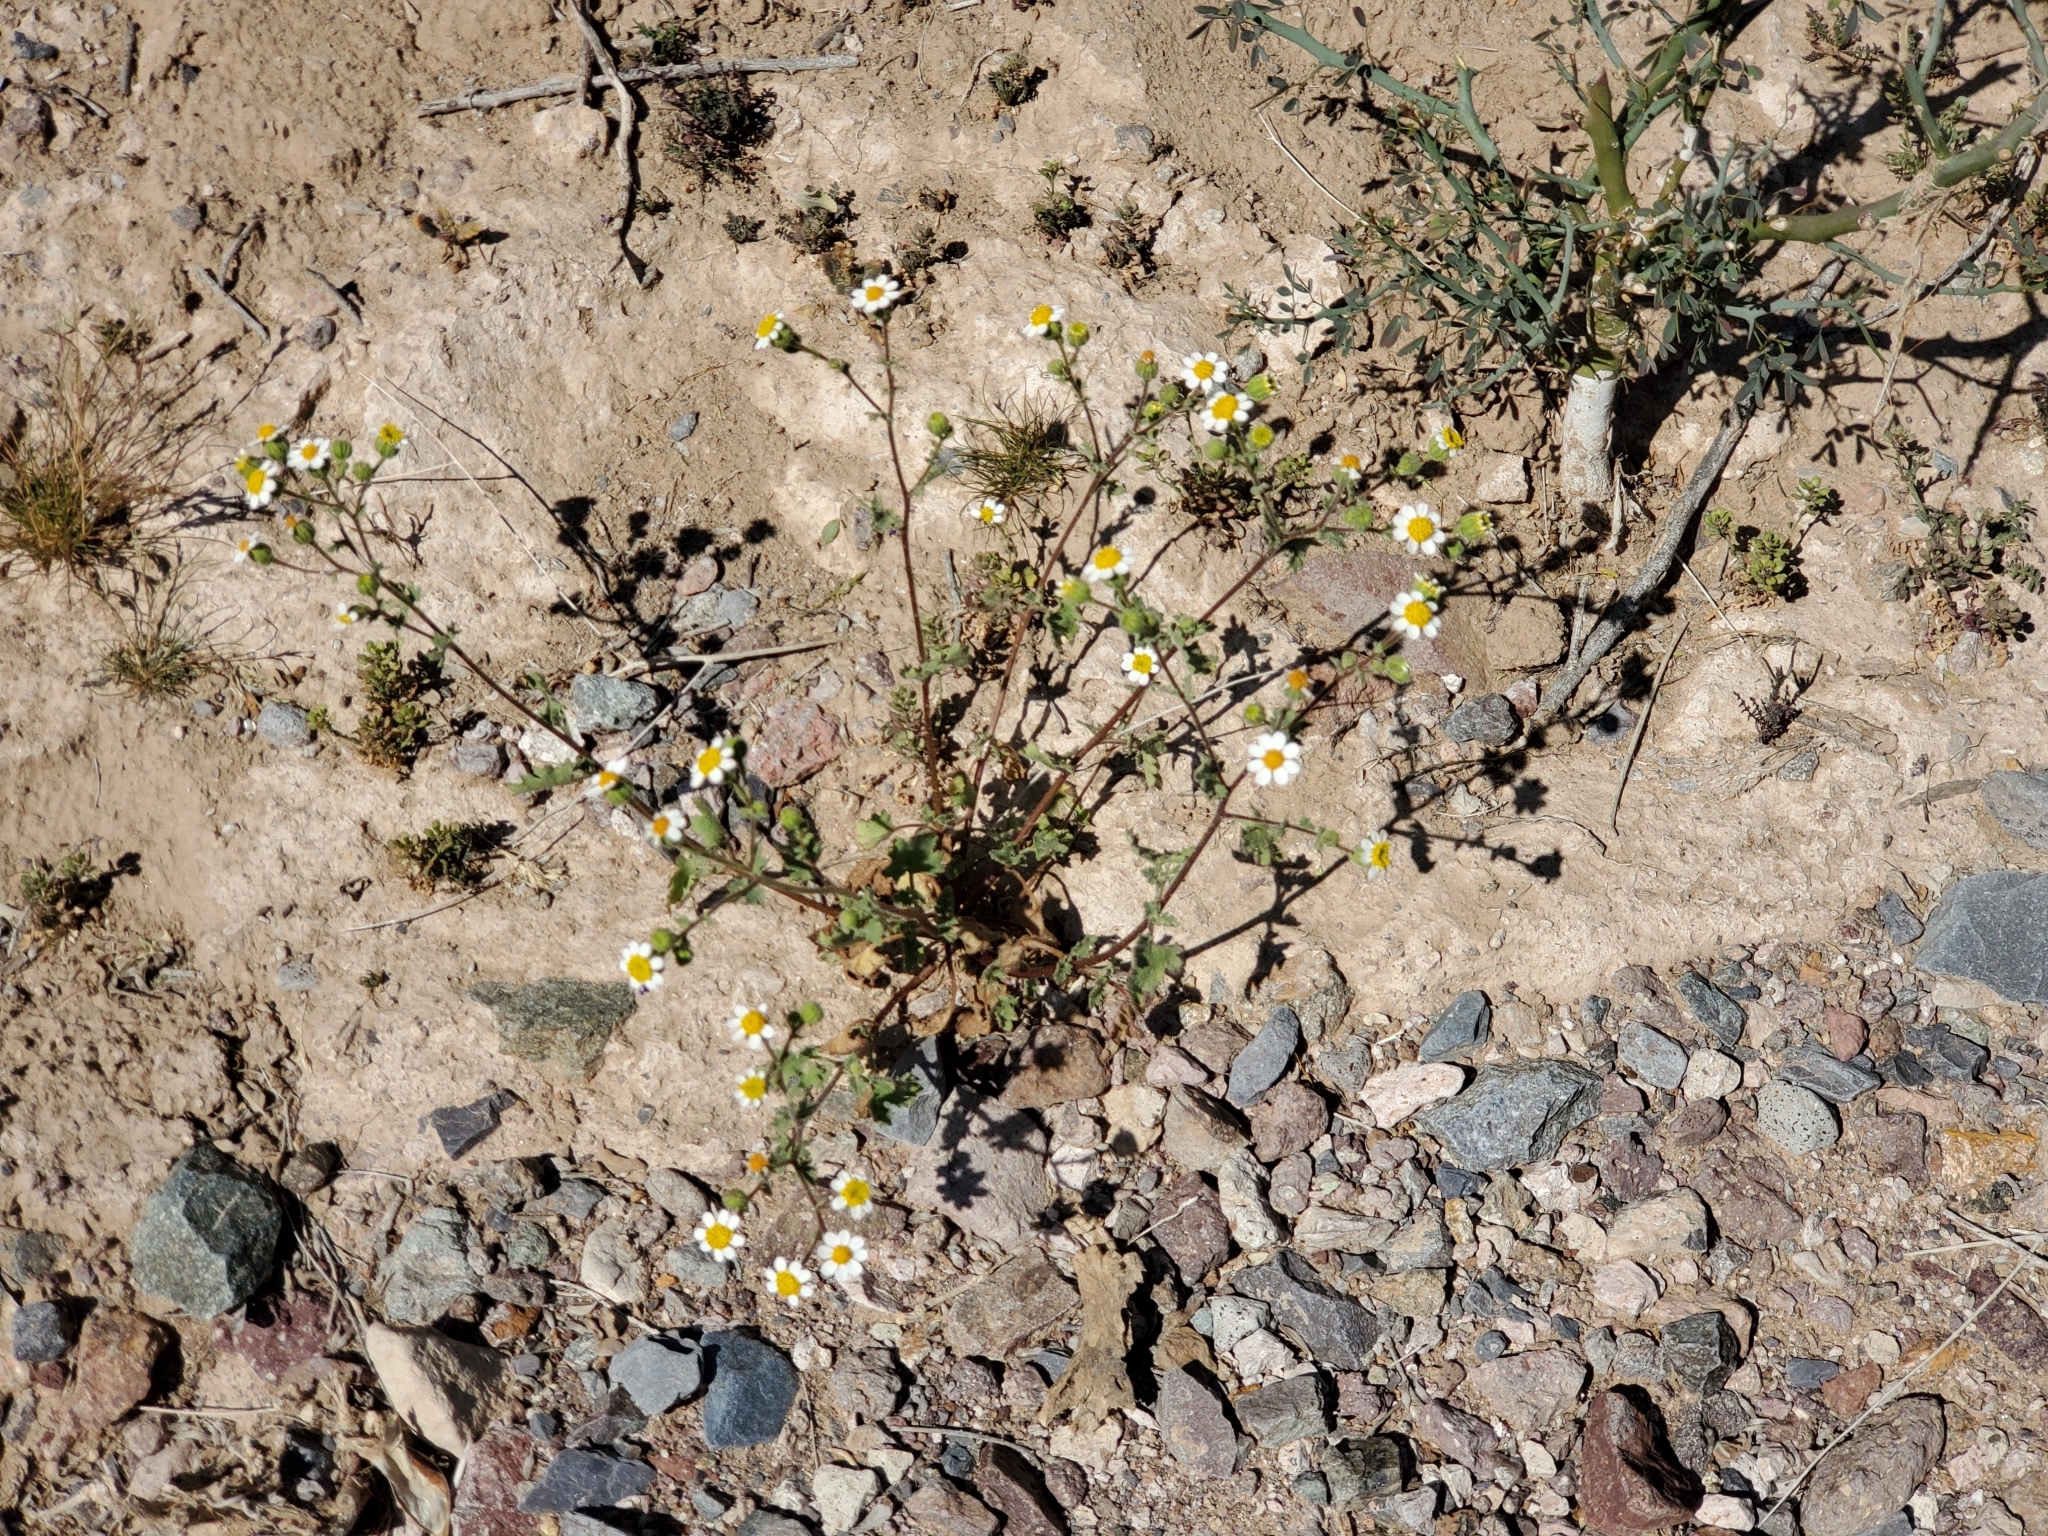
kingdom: Plantae
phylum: Tracheophyta
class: Magnoliopsida
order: Asterales
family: Asteraceae
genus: Laphamia
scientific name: Laphamia emoryi
